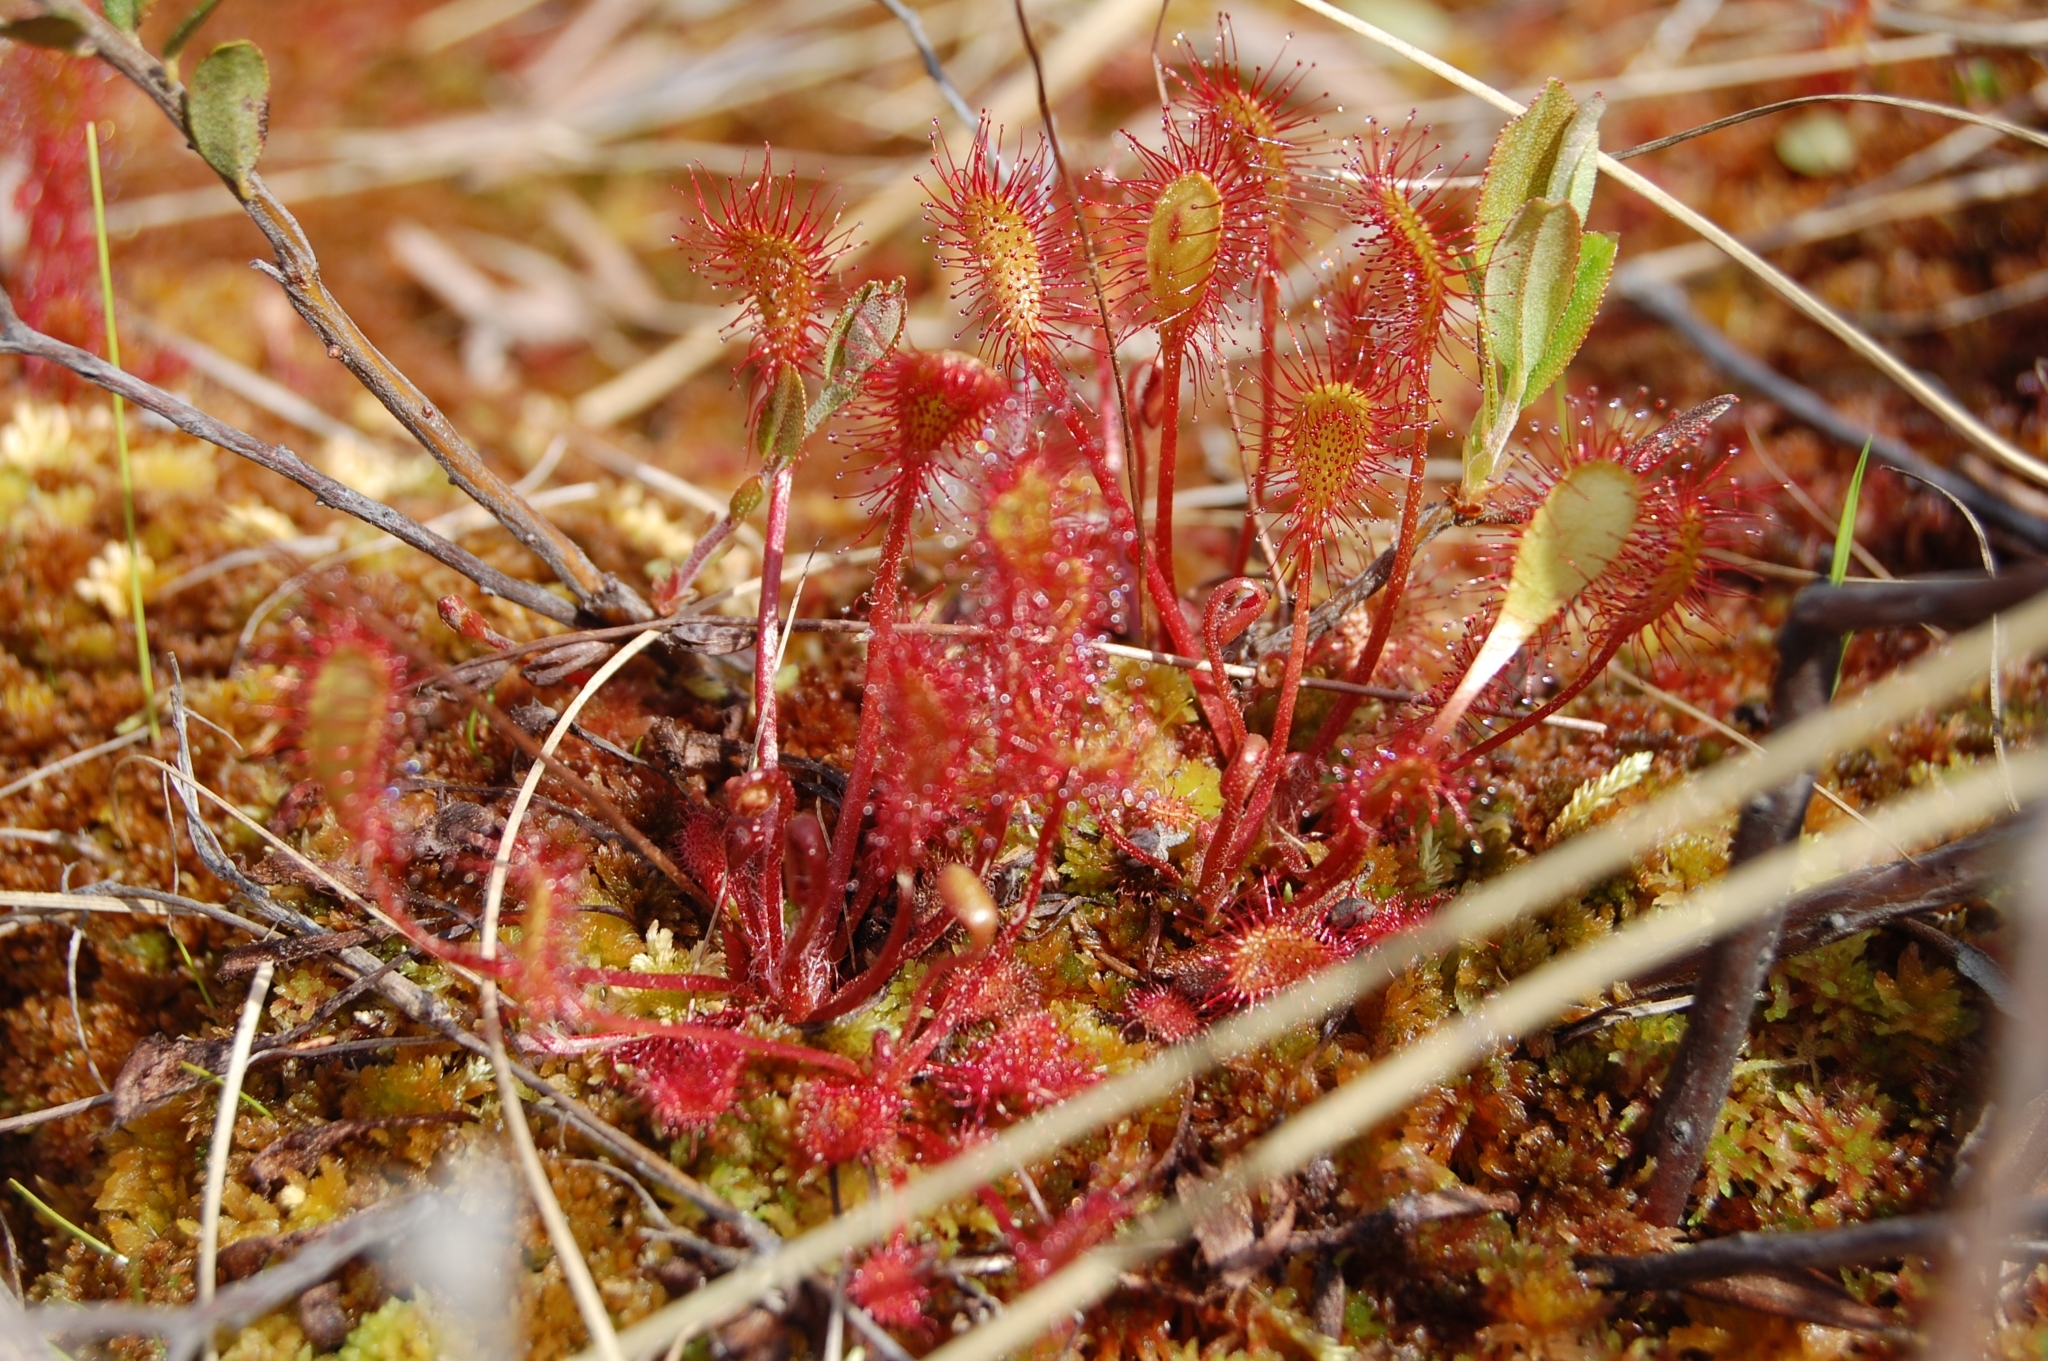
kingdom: Plantae
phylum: Tracheophyta
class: Magnoliopsida
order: Caryophyllales
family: Droseraceae
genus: Drosera
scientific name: Drosera anglica
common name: Great sundew
